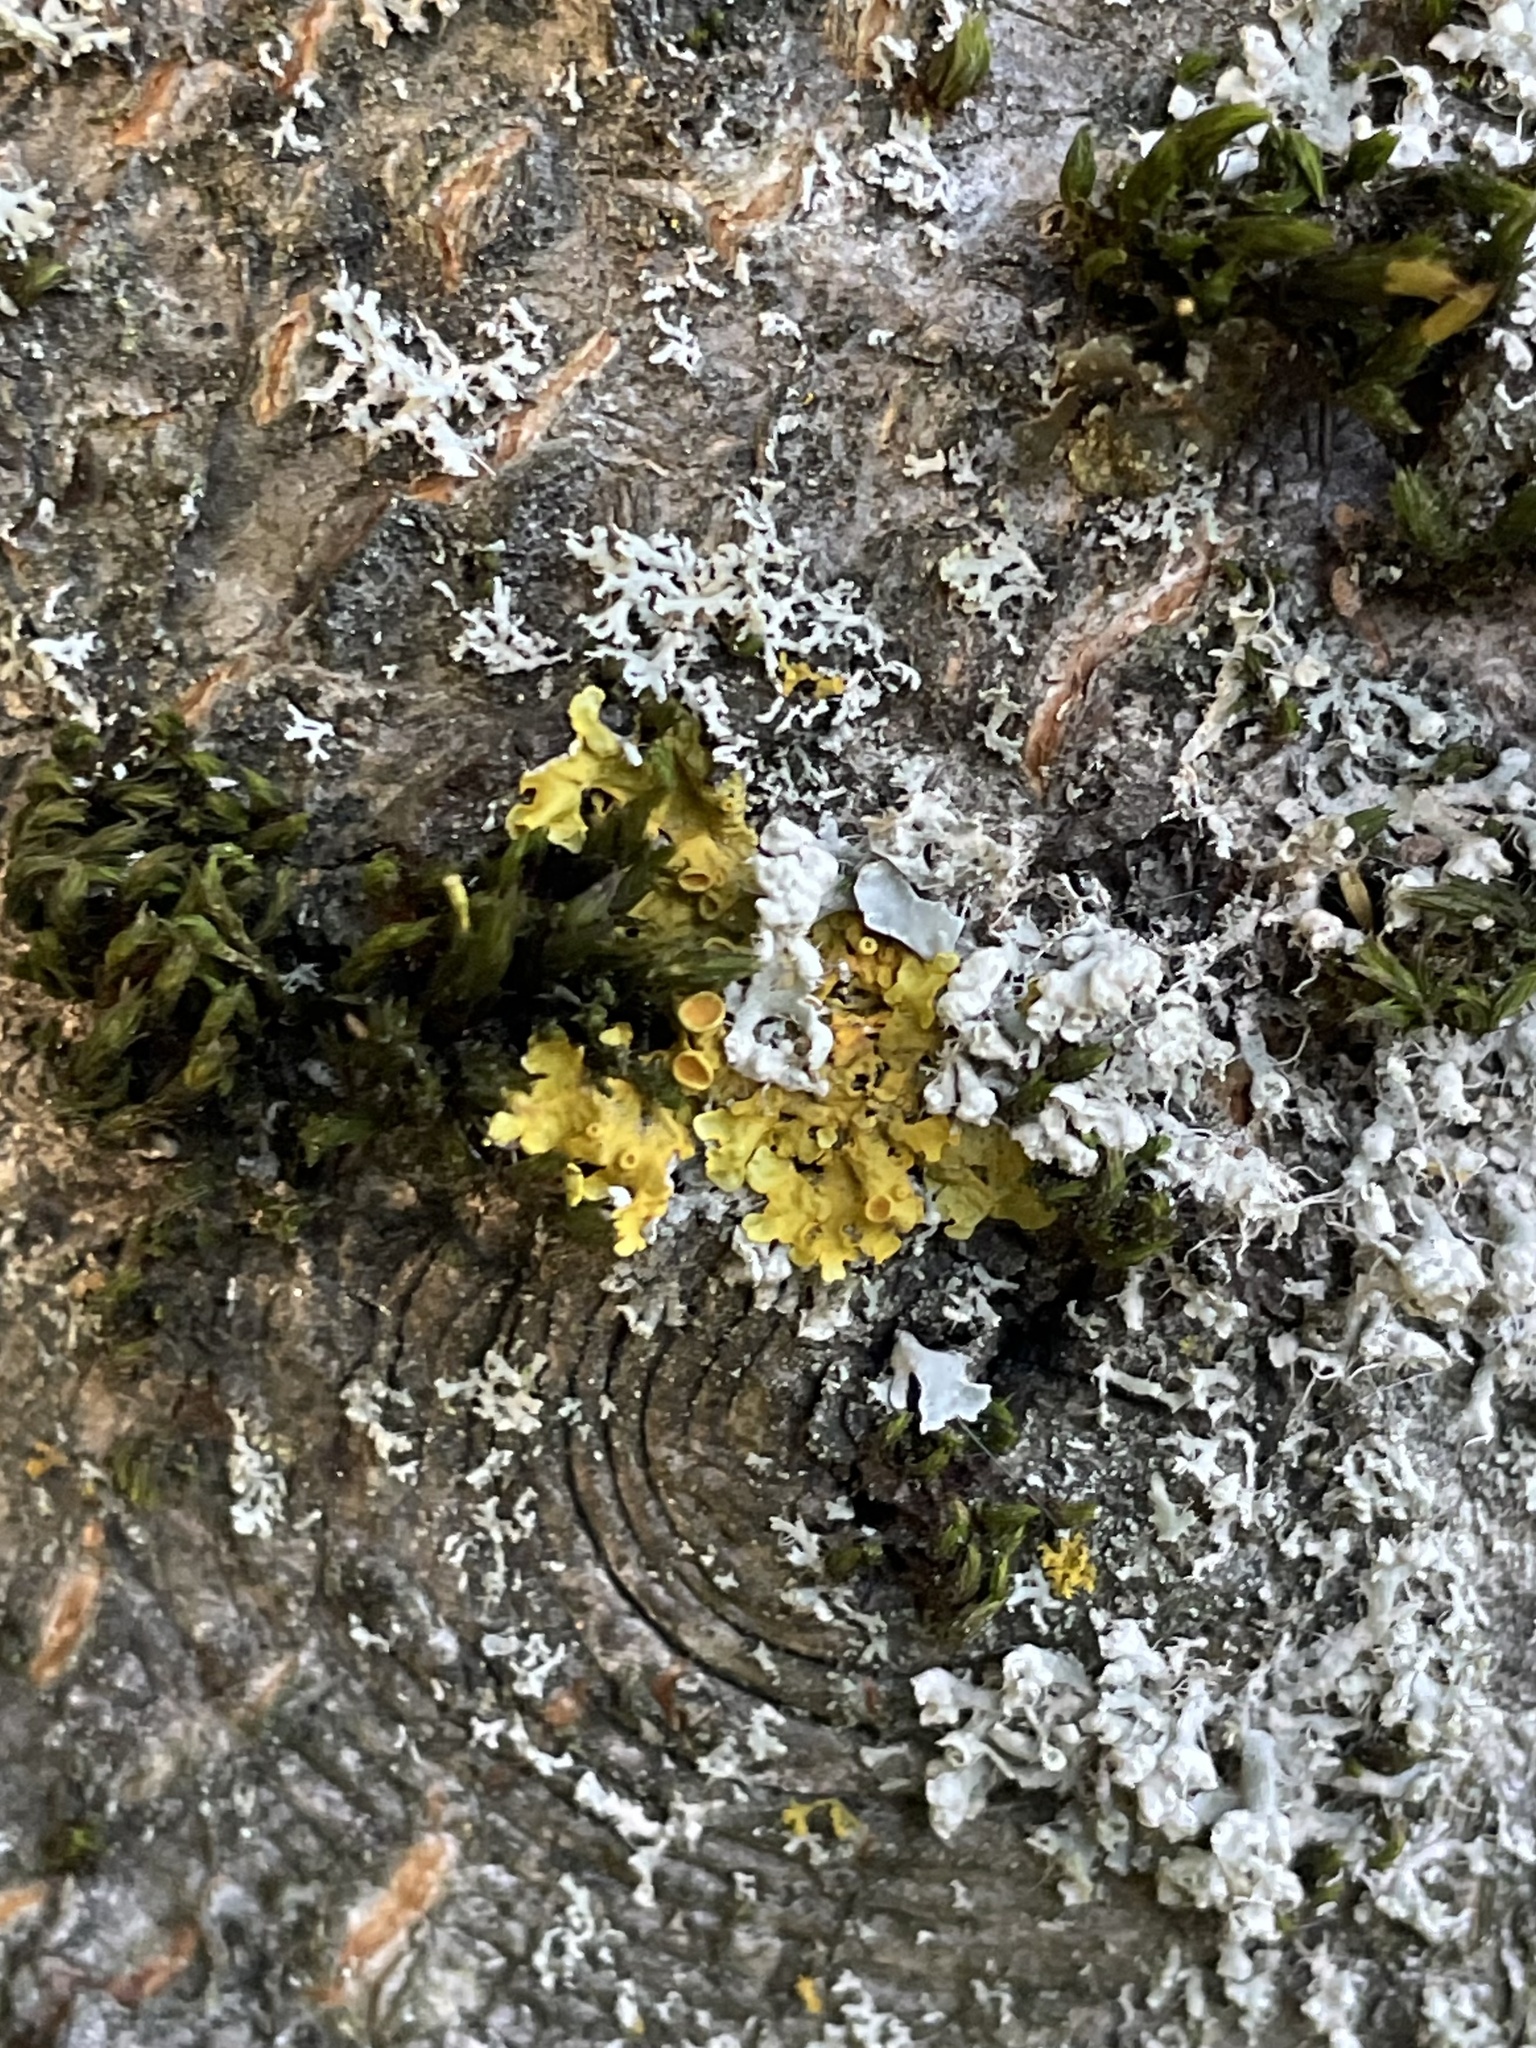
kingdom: Fungi
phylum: Ascomycota
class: Lecanoromycetes
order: Teloschistales
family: Teloschistaceae
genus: Xanthoria
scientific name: Xanthoria parietina
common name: Common orange lichen
